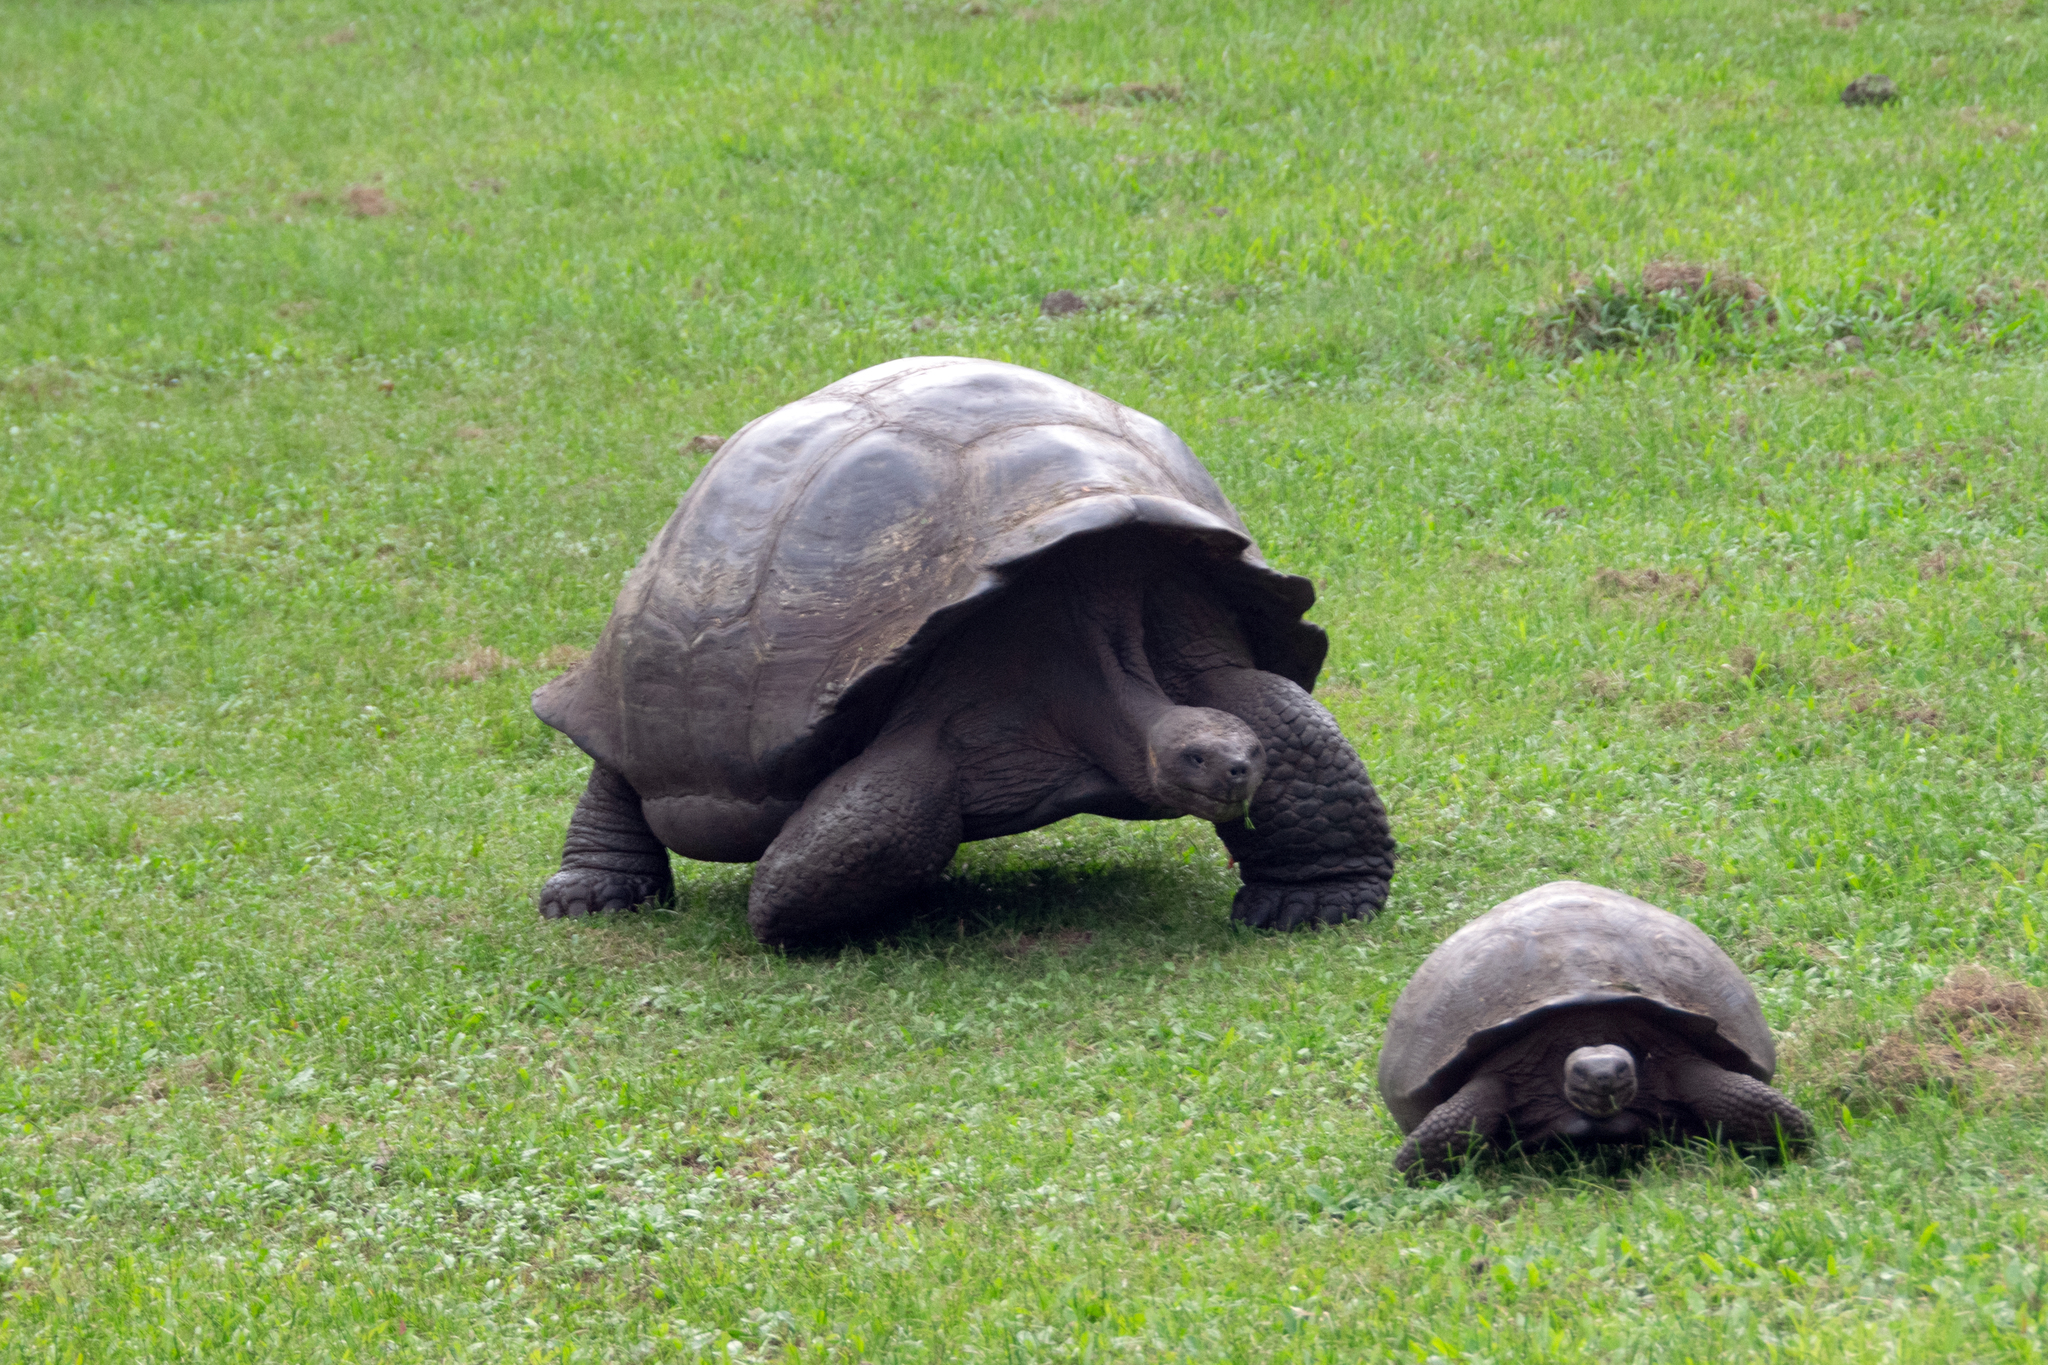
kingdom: Animalia
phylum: Chordata
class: Testudines
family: Testudinidae
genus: Chelonoidis
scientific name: Chelonoidis porteri
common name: Indefatigable island giant tortoise
